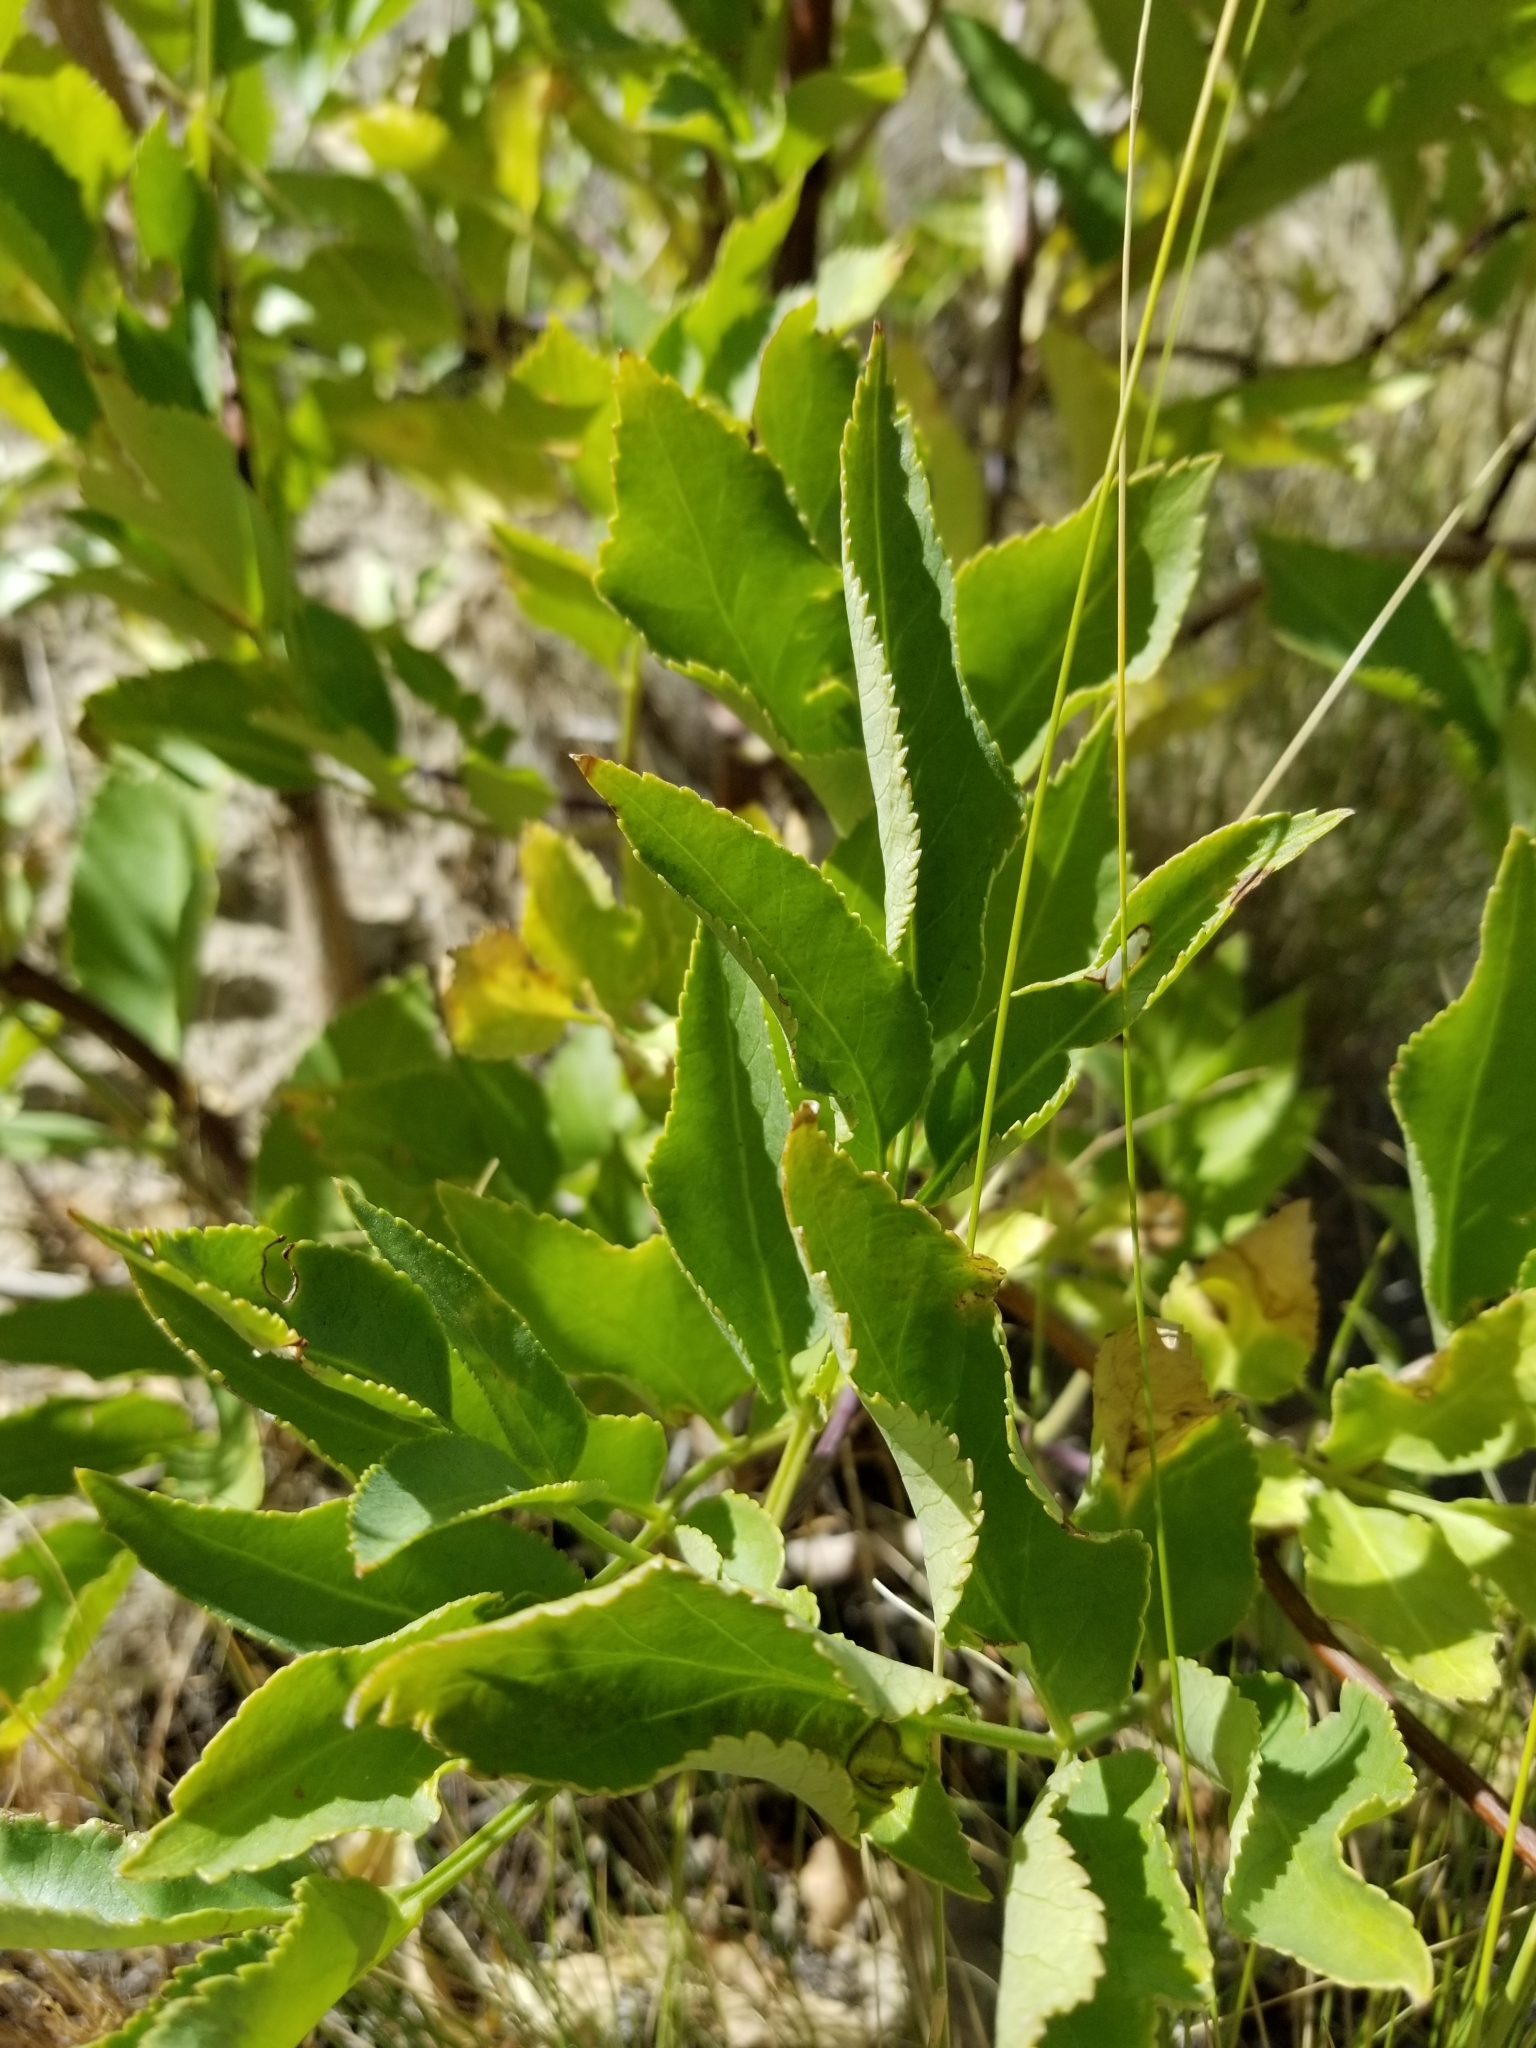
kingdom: Plantae
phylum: Tracheophyta
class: Magnoliopsida
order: Dipsacales
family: Viburnaceae
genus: Sambucus
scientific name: Sambucus cerulea
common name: Blue elder
